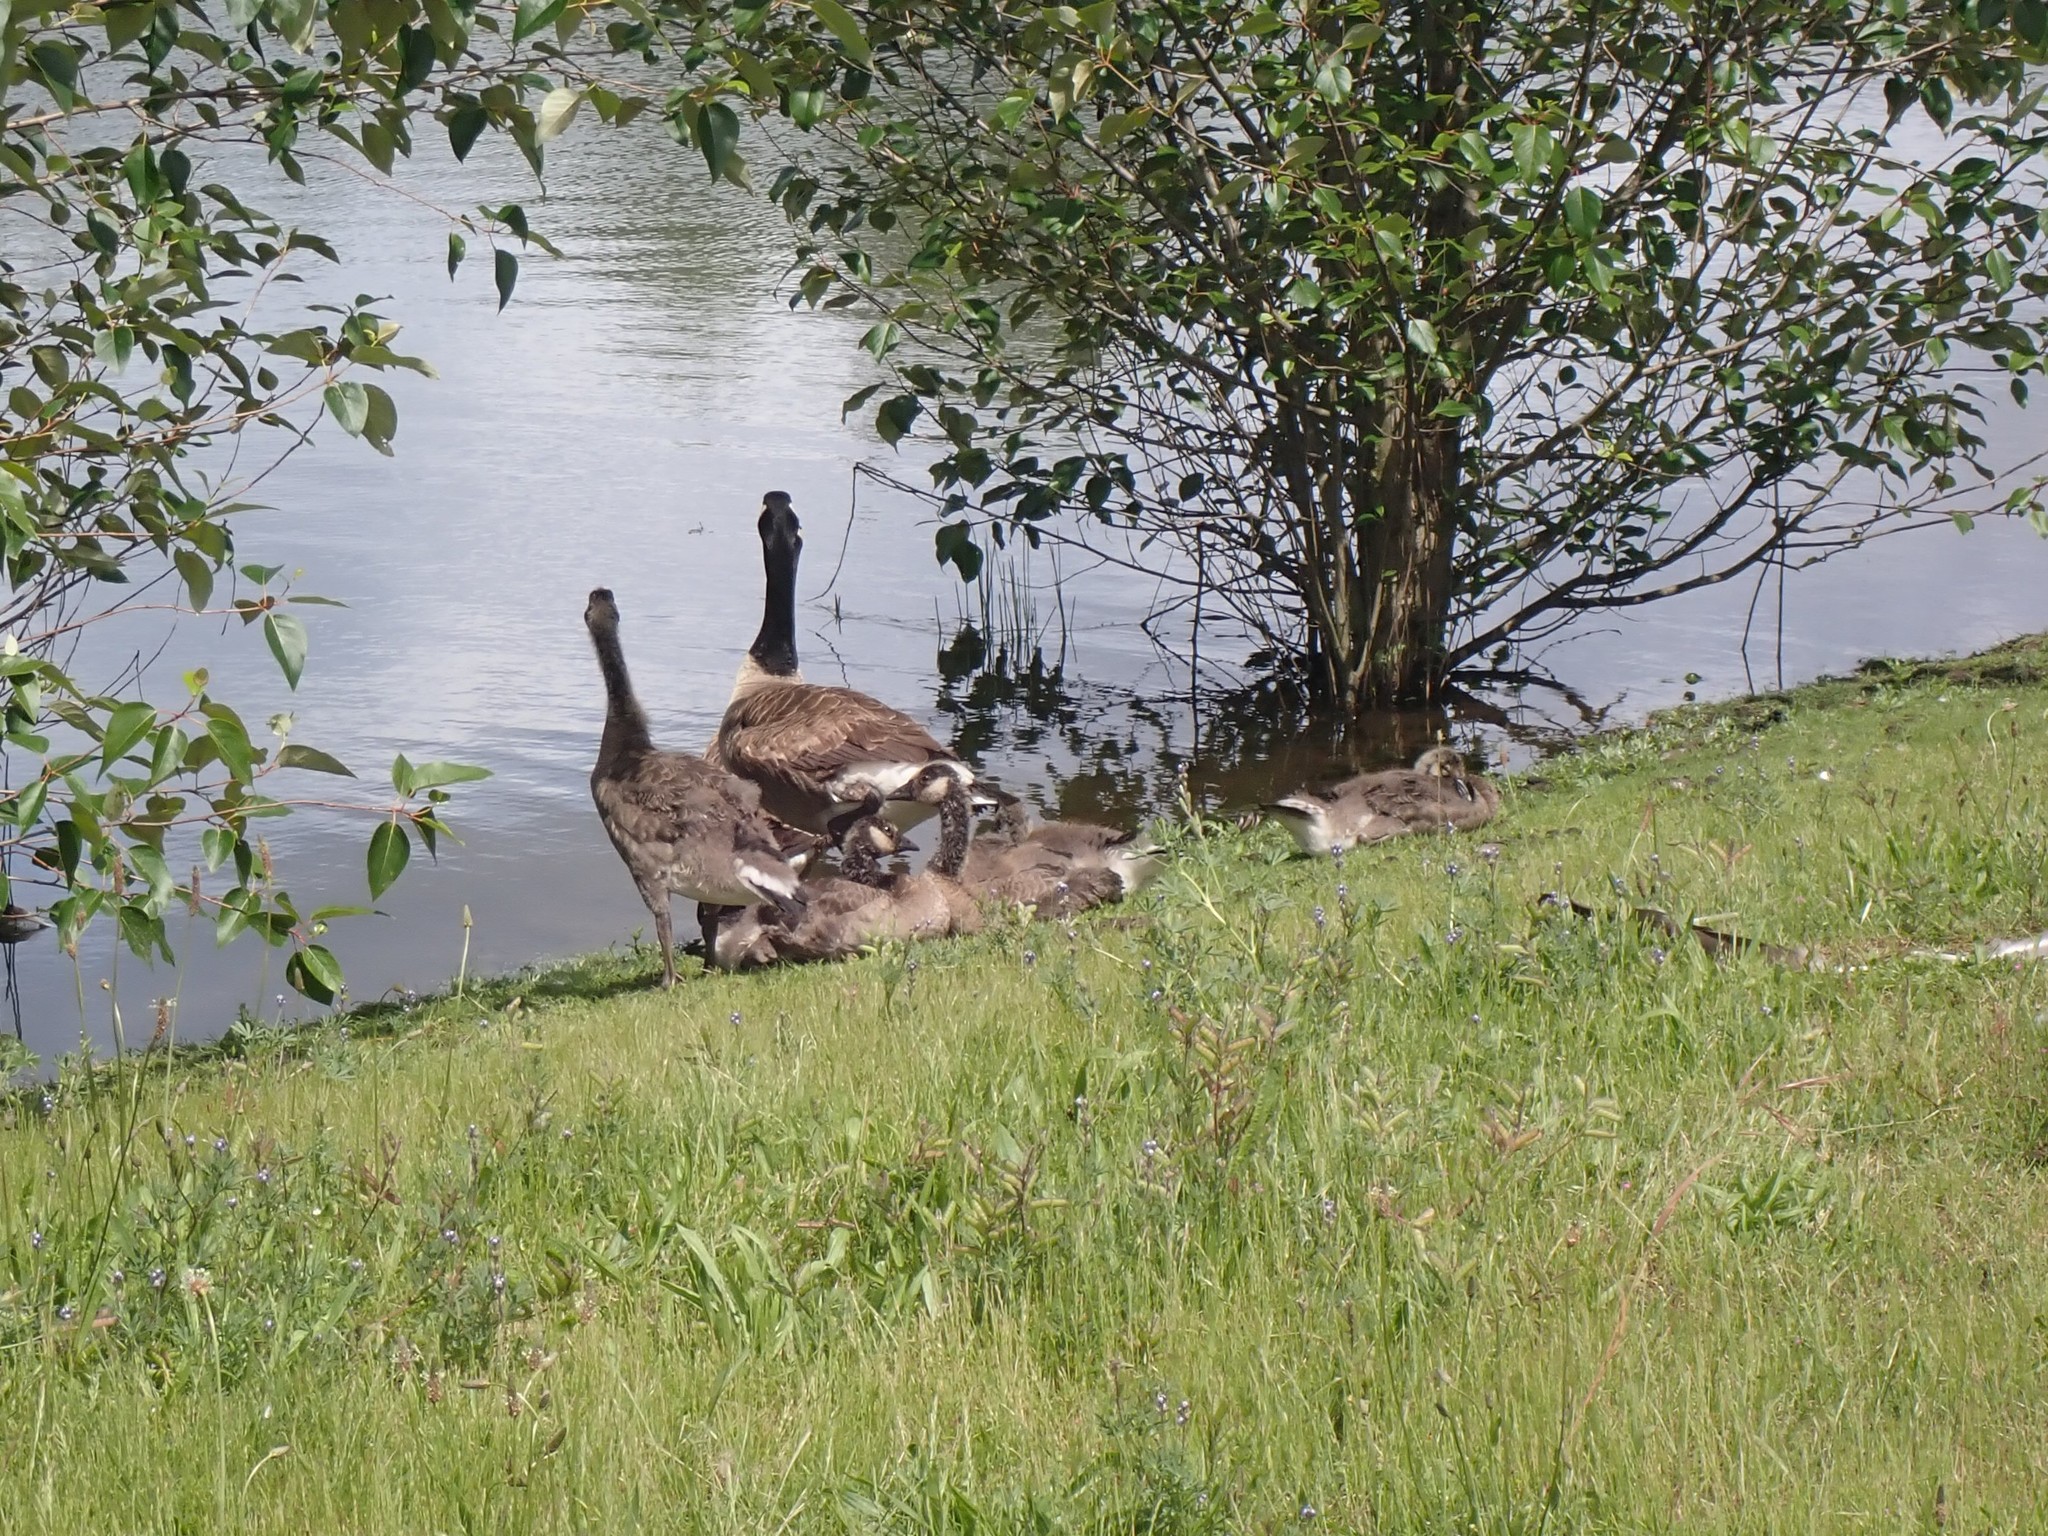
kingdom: Animalia
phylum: Chordata
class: Aves
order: Anseriformes
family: Anatidae
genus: Branta
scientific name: Branta canadensis
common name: Canada goose
